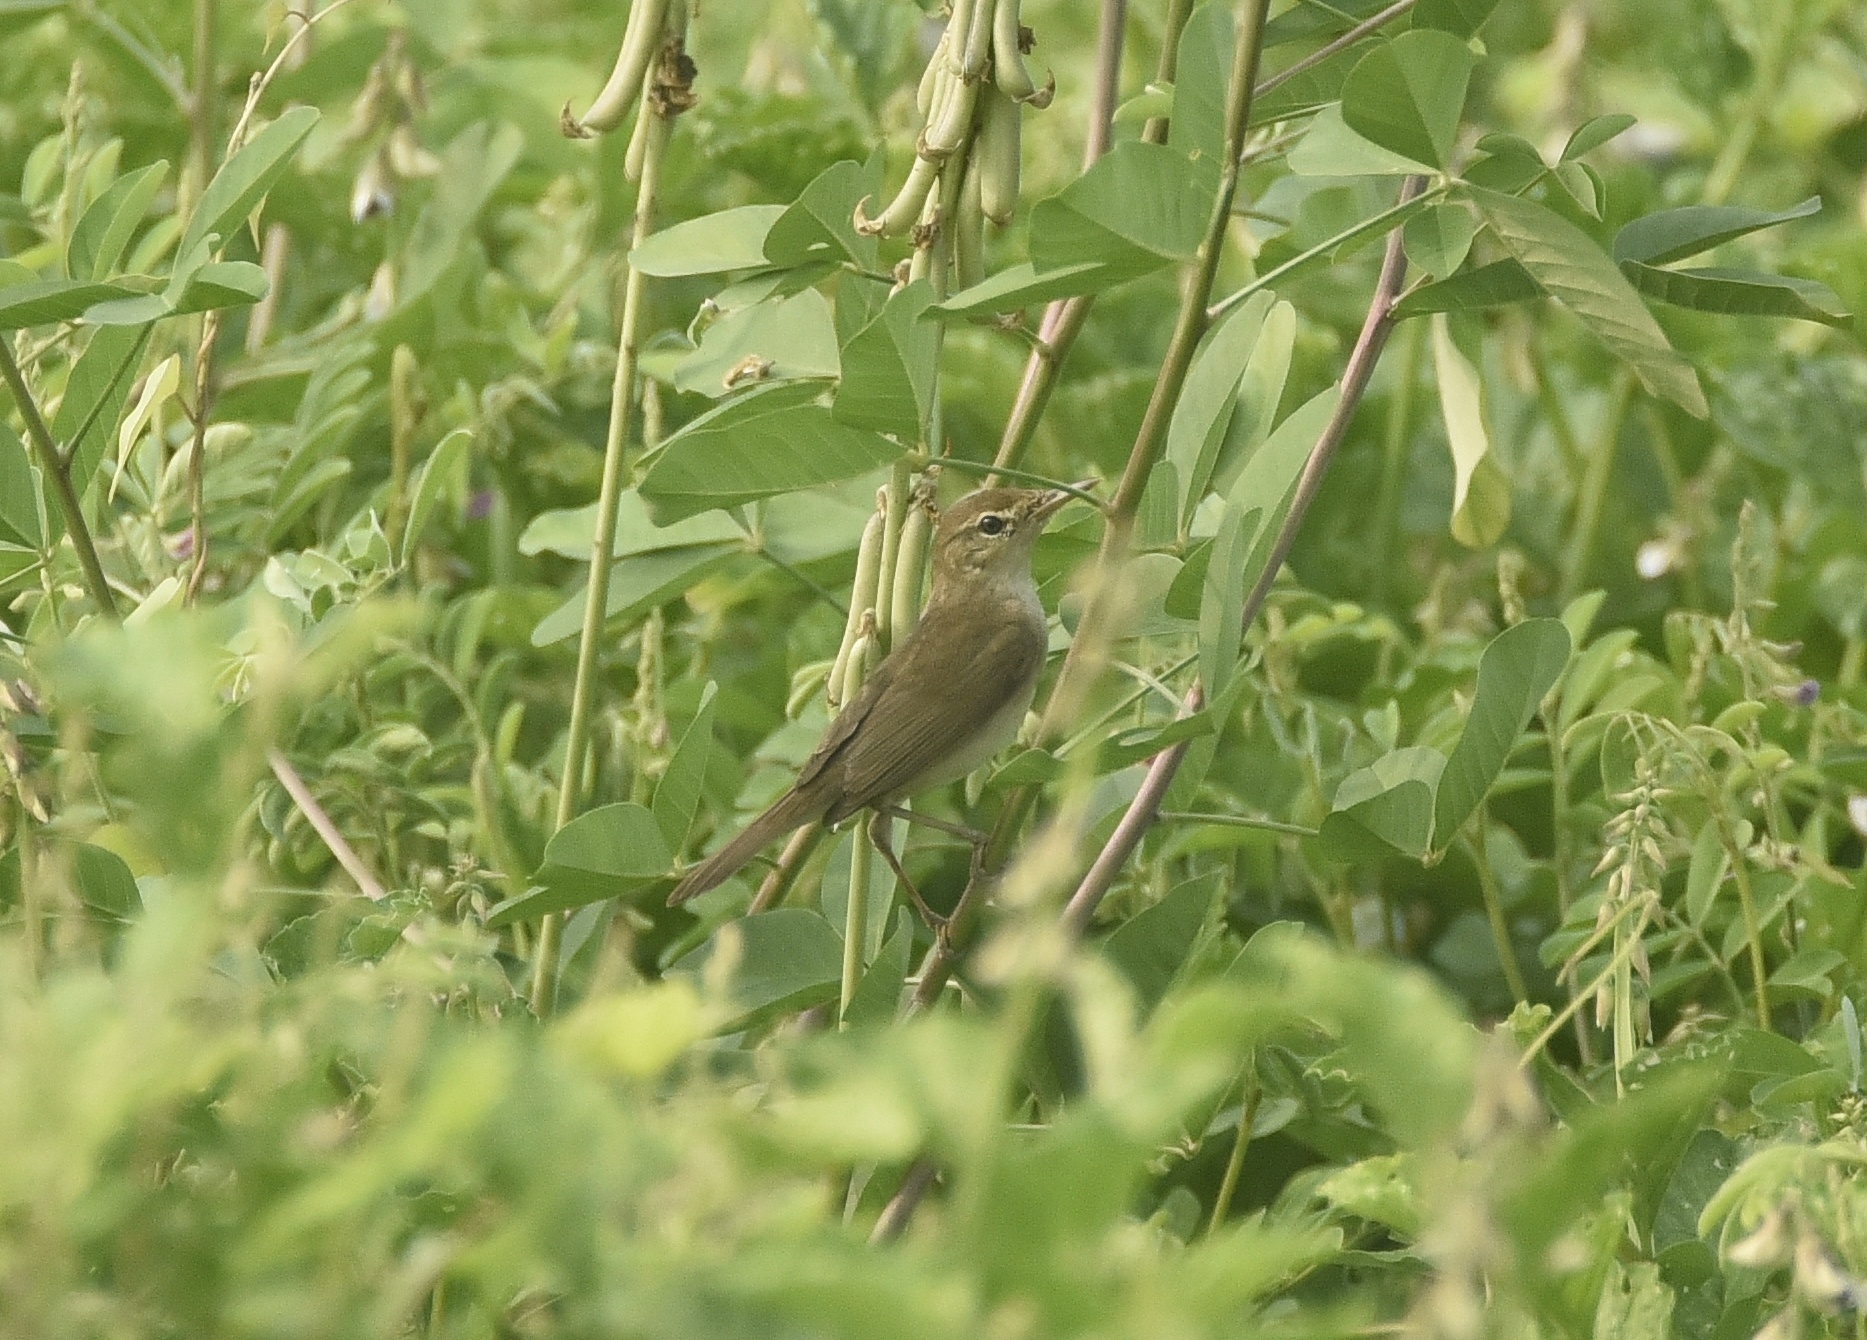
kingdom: Animalia
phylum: Chordata
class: Aves
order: Passeriformes
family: Acrocephalidae
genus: Acrocephalus
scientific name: Acrocephalus dumetorum
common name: Blyth's reed warbler
